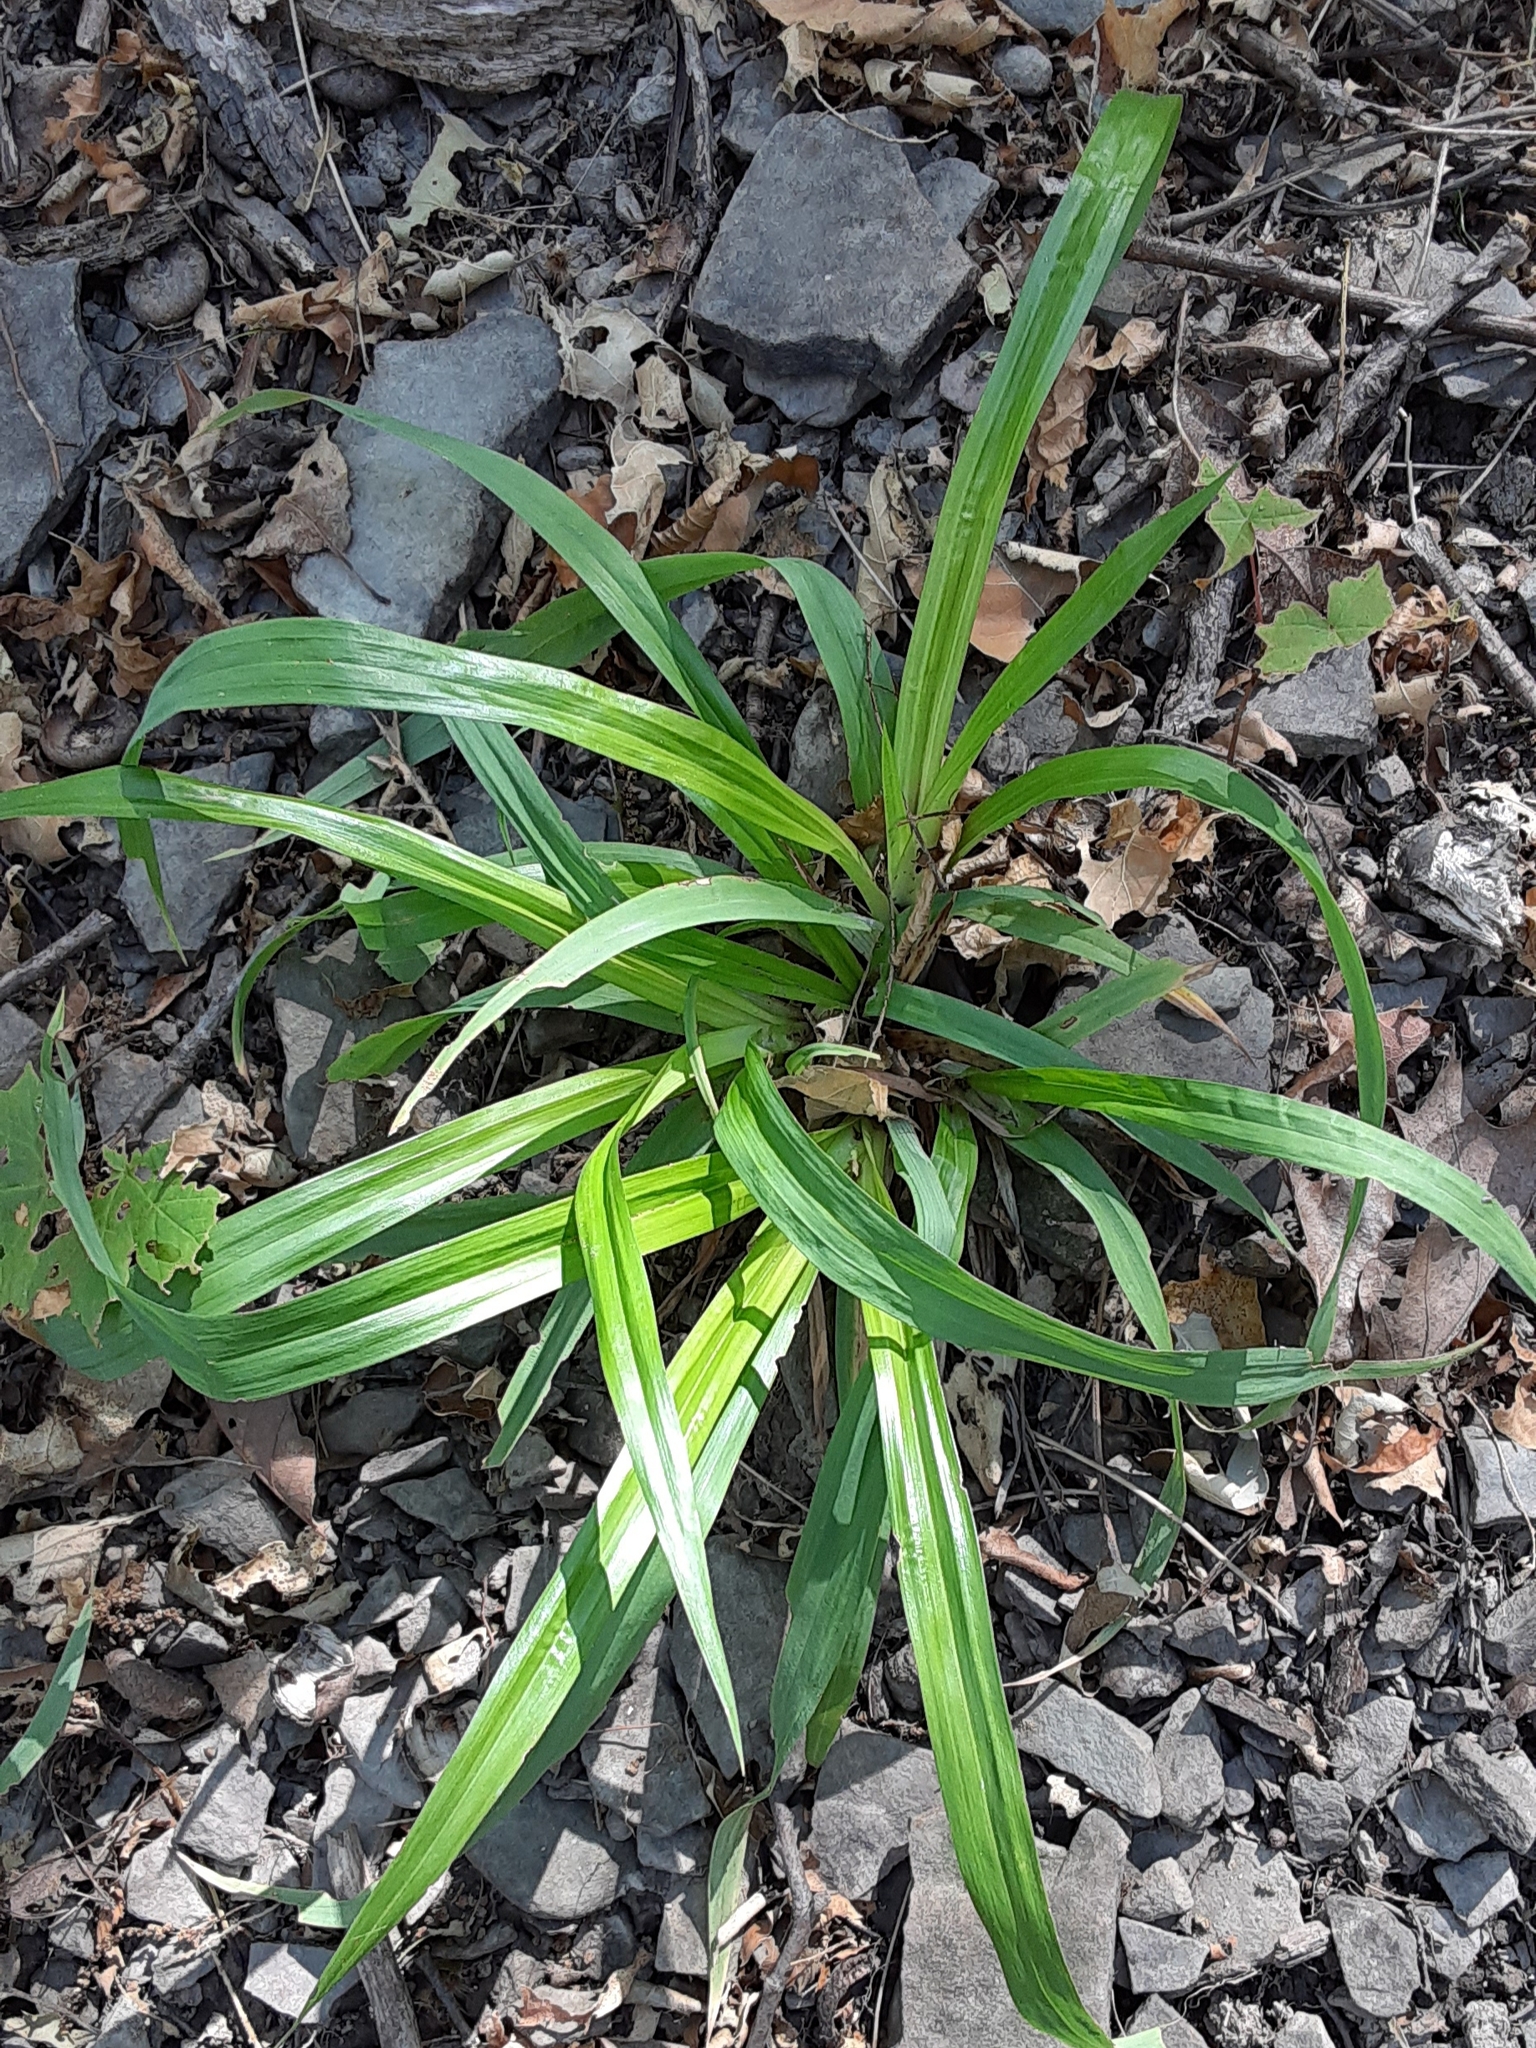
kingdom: Plantae
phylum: Tracheophyta
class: Liliopsida
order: Poales
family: Cyperaceae
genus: Carex
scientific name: Carex
